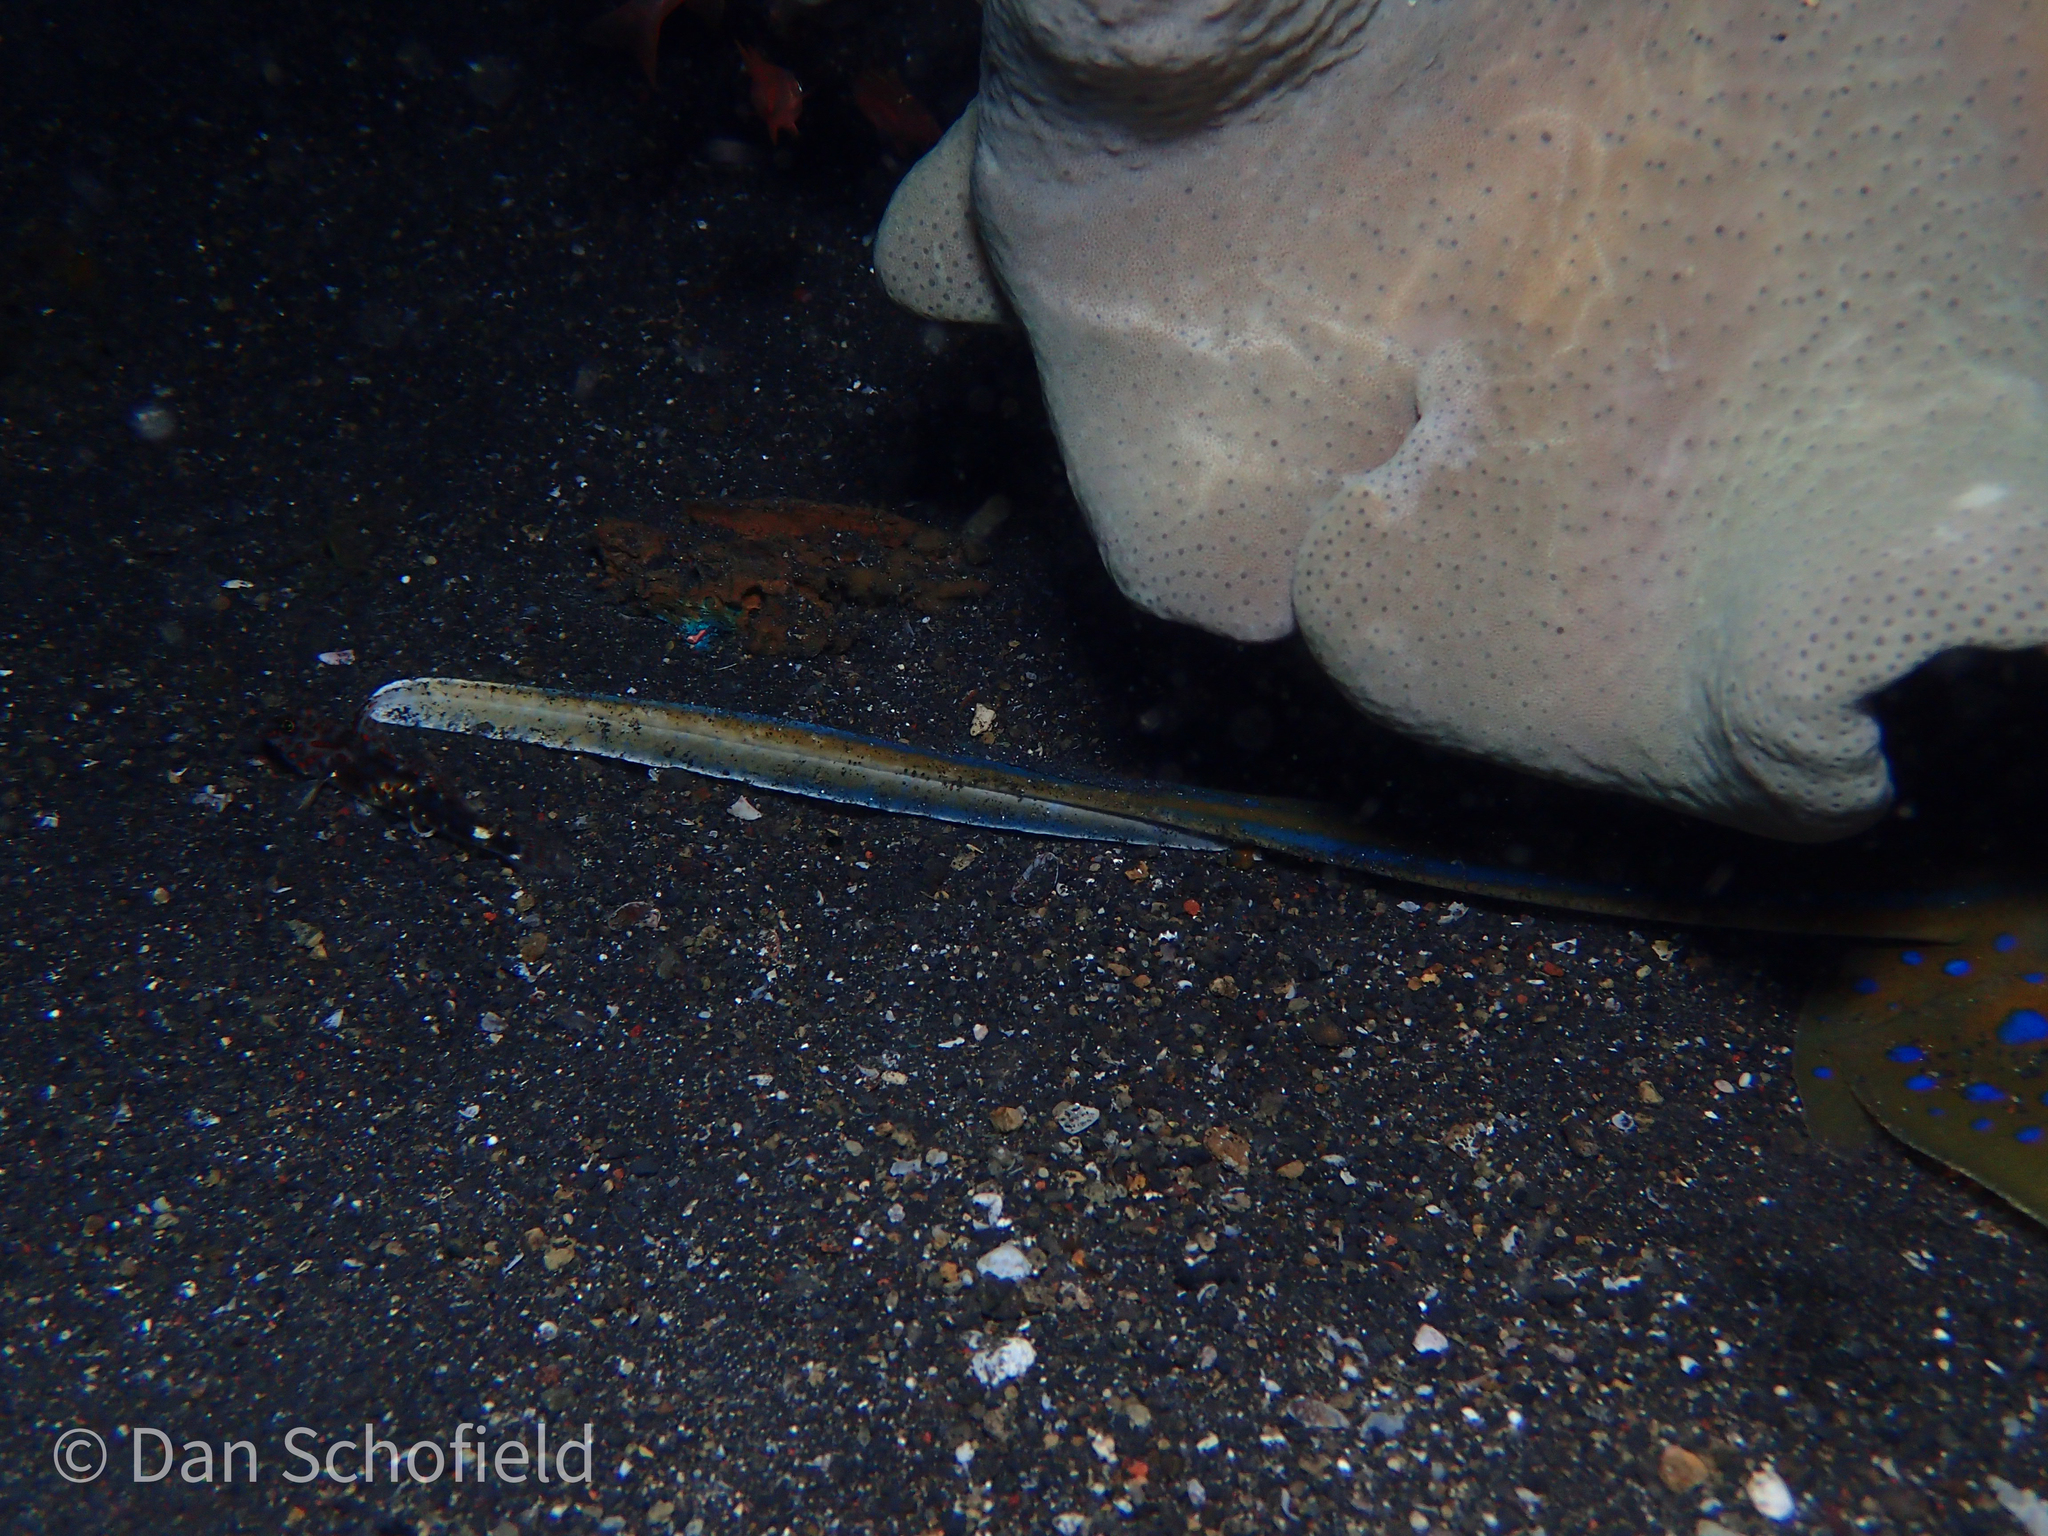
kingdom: Animalia
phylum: Chordata
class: Elasmobranchii
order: Myliobatiformes
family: Dasyatidae
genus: Taeniura
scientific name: Taeniura lymma
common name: Bluespotted ribbontail ray
